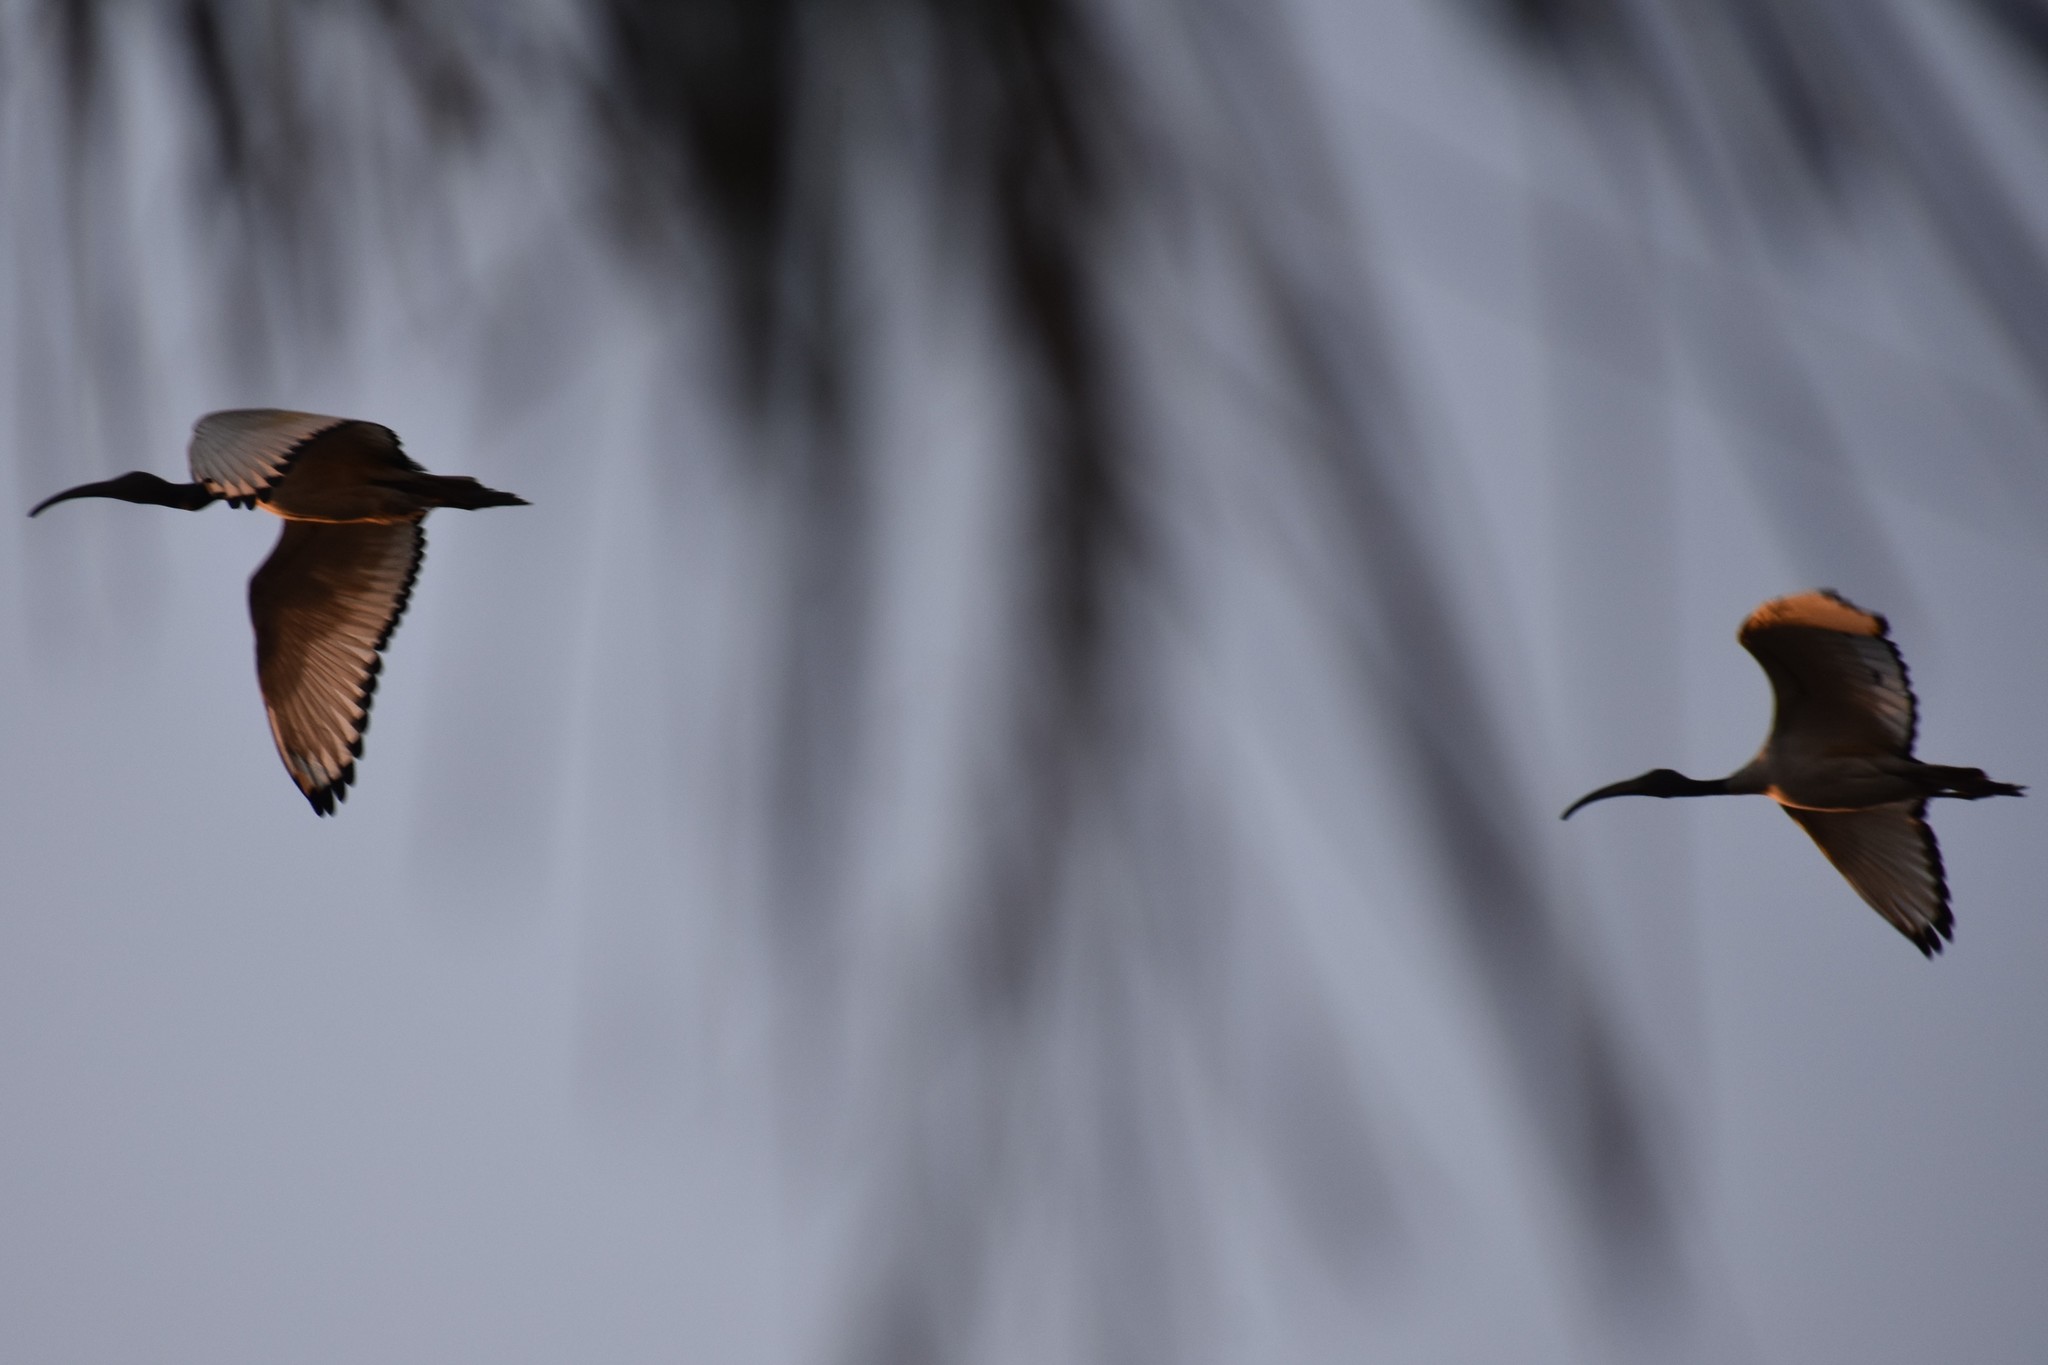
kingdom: Animalia
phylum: Chordata
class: Aves
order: Pelecaniformes
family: Threskiornithidae
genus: Threskiornis
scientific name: Threskiornis aethiopicus
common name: Sacred ibis
